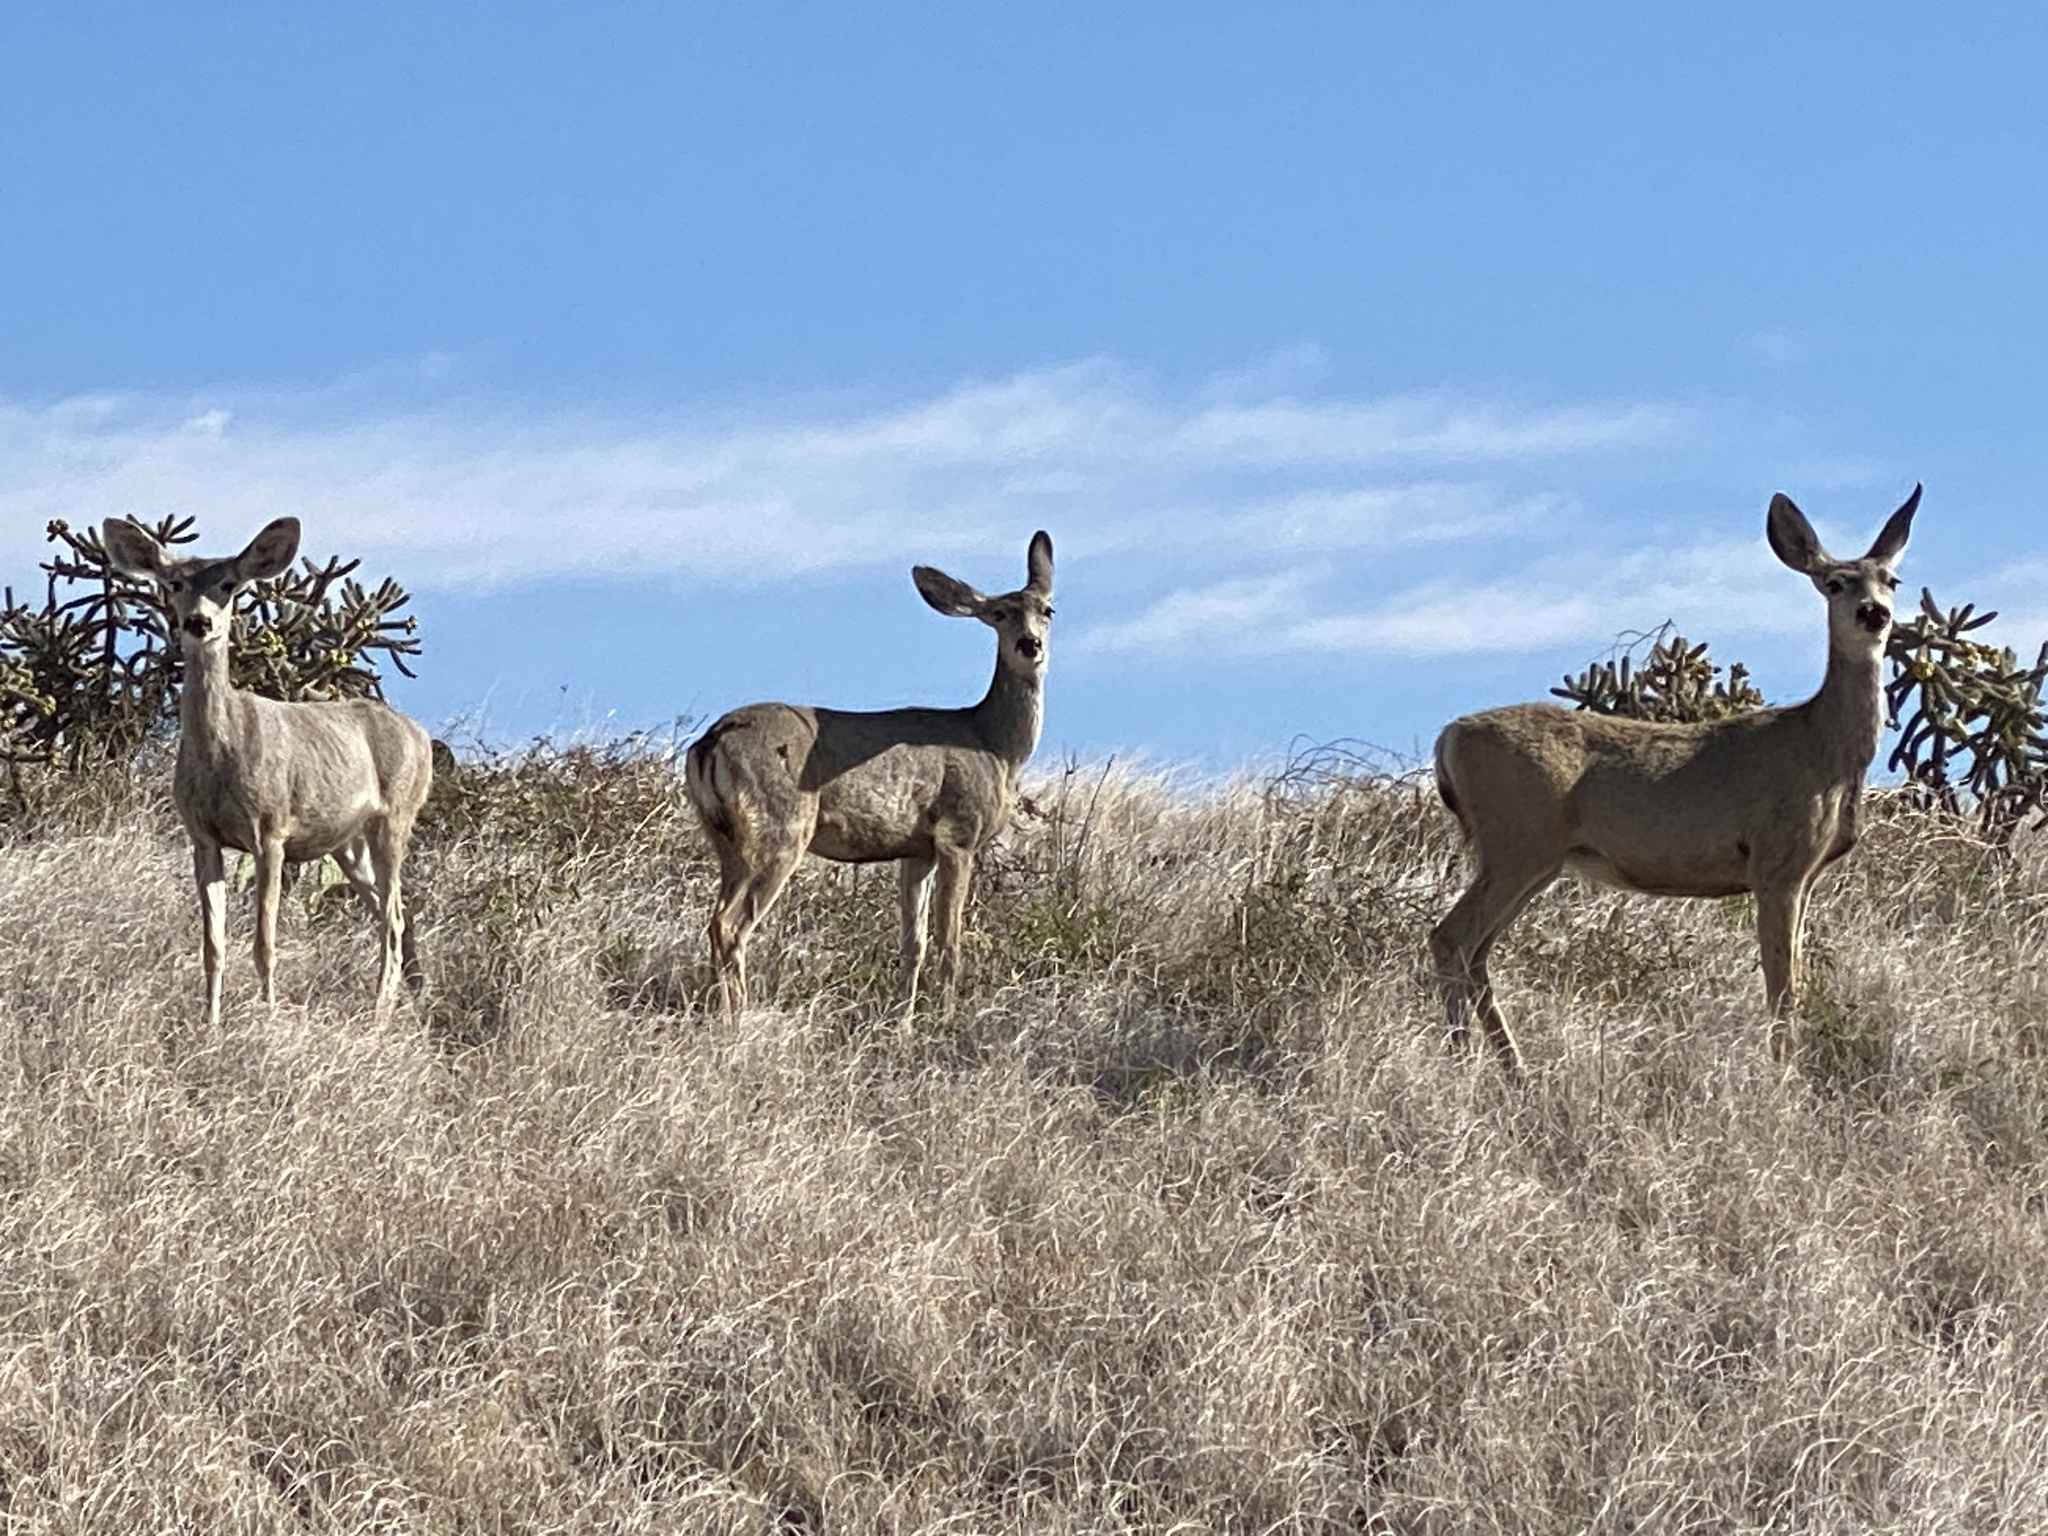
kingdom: Animalia
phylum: Chordata
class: Mammalia
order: Artiodactyla
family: Cervidae
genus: Odocoileus
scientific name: Odocoileus hemionus
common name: Mule deer
